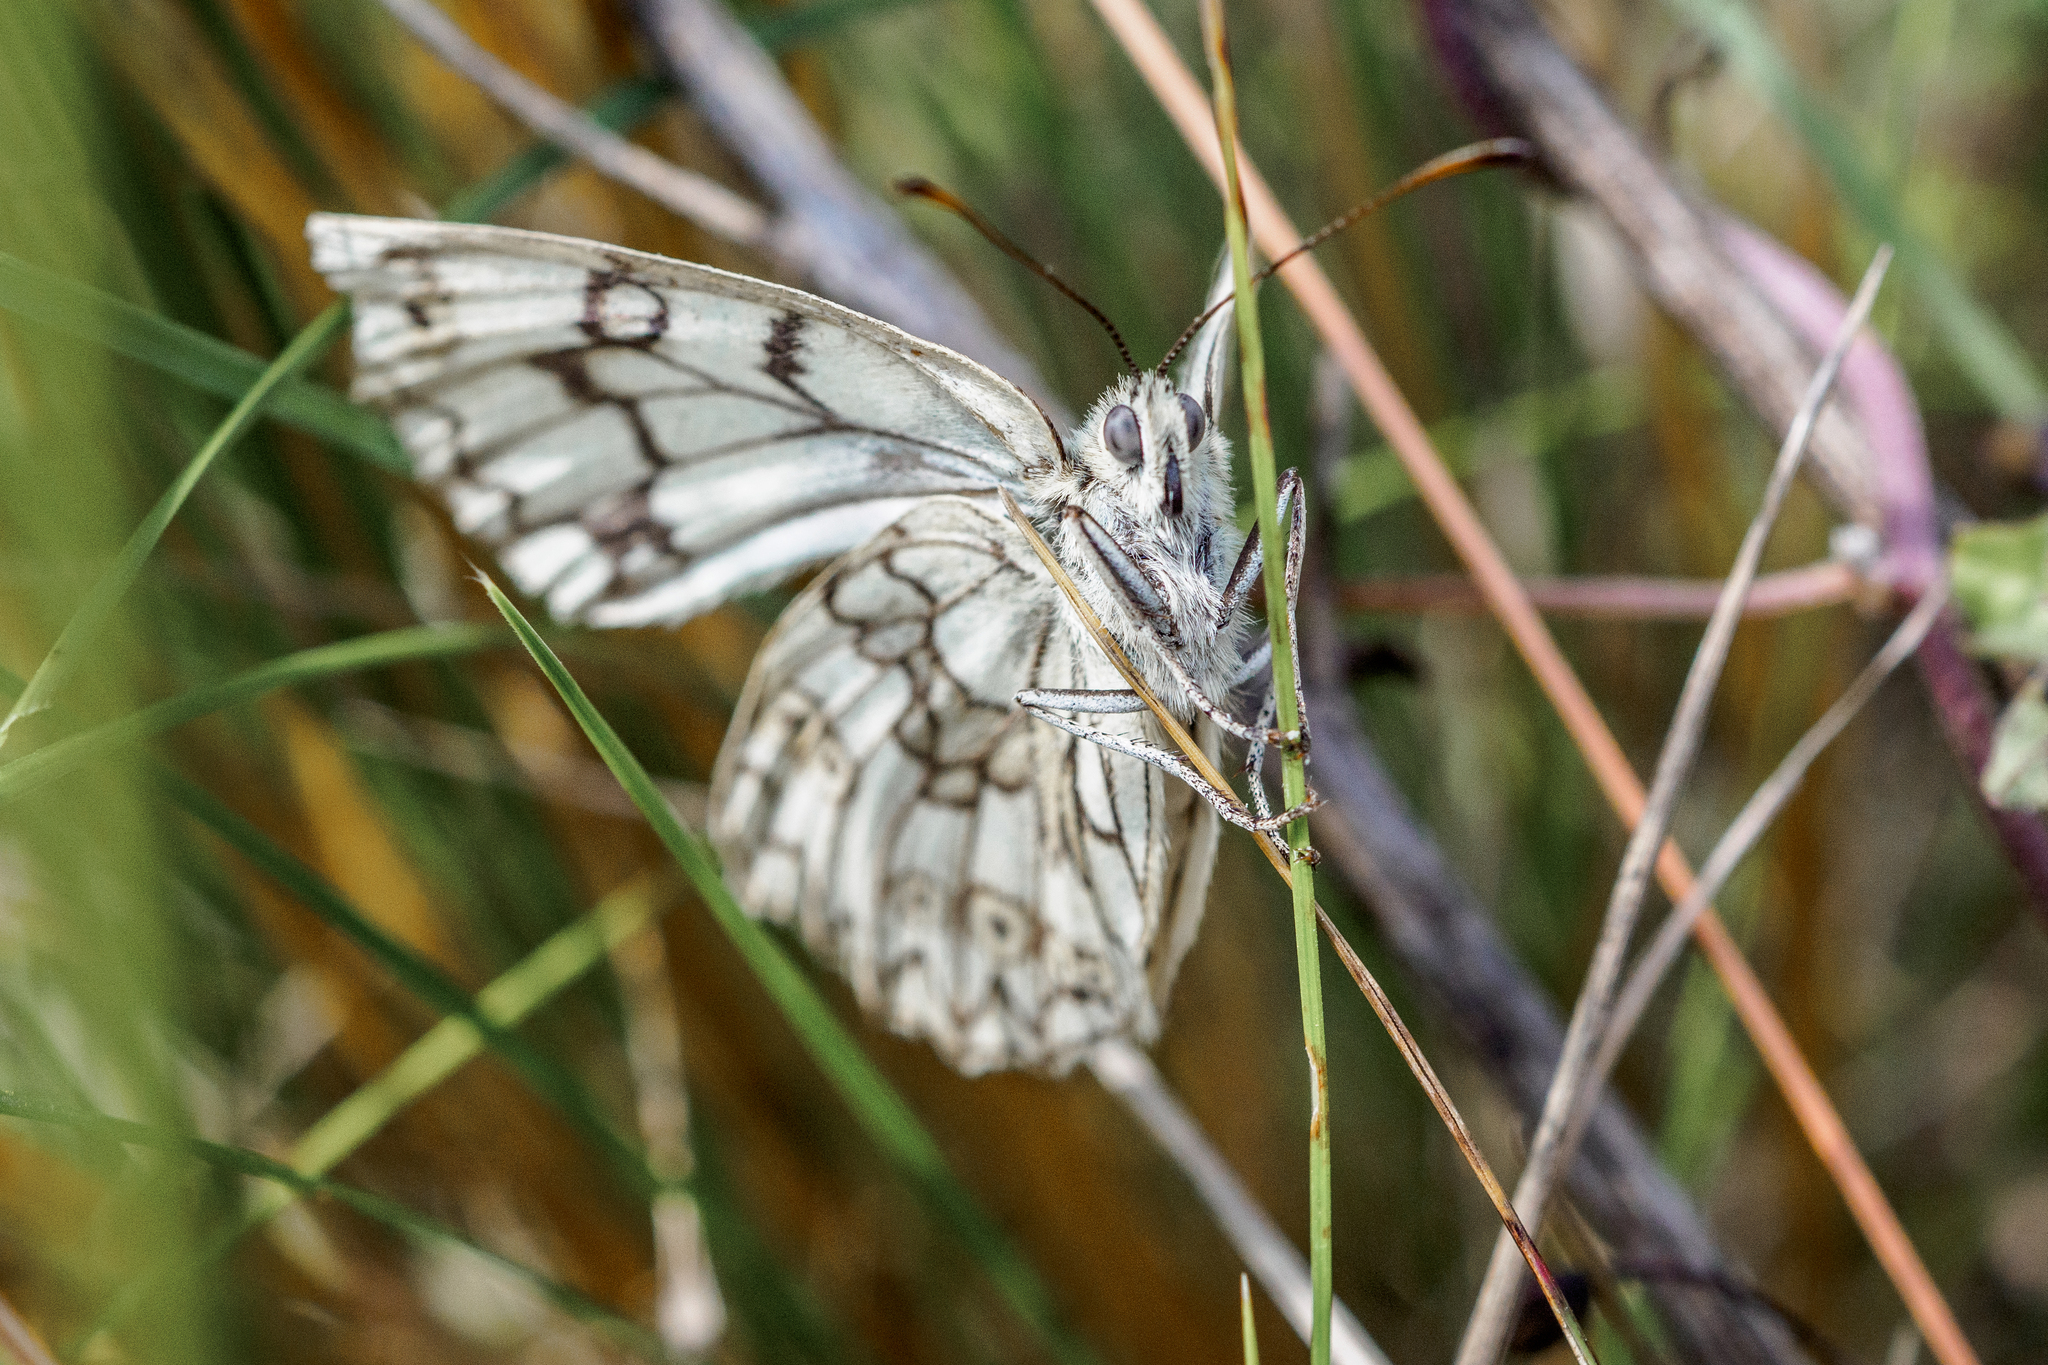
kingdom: Animalia
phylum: Arthropoda
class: Insecta
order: Lepidoptera
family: Nymphalidae
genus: Melanargia
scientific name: Melanargia japygia
